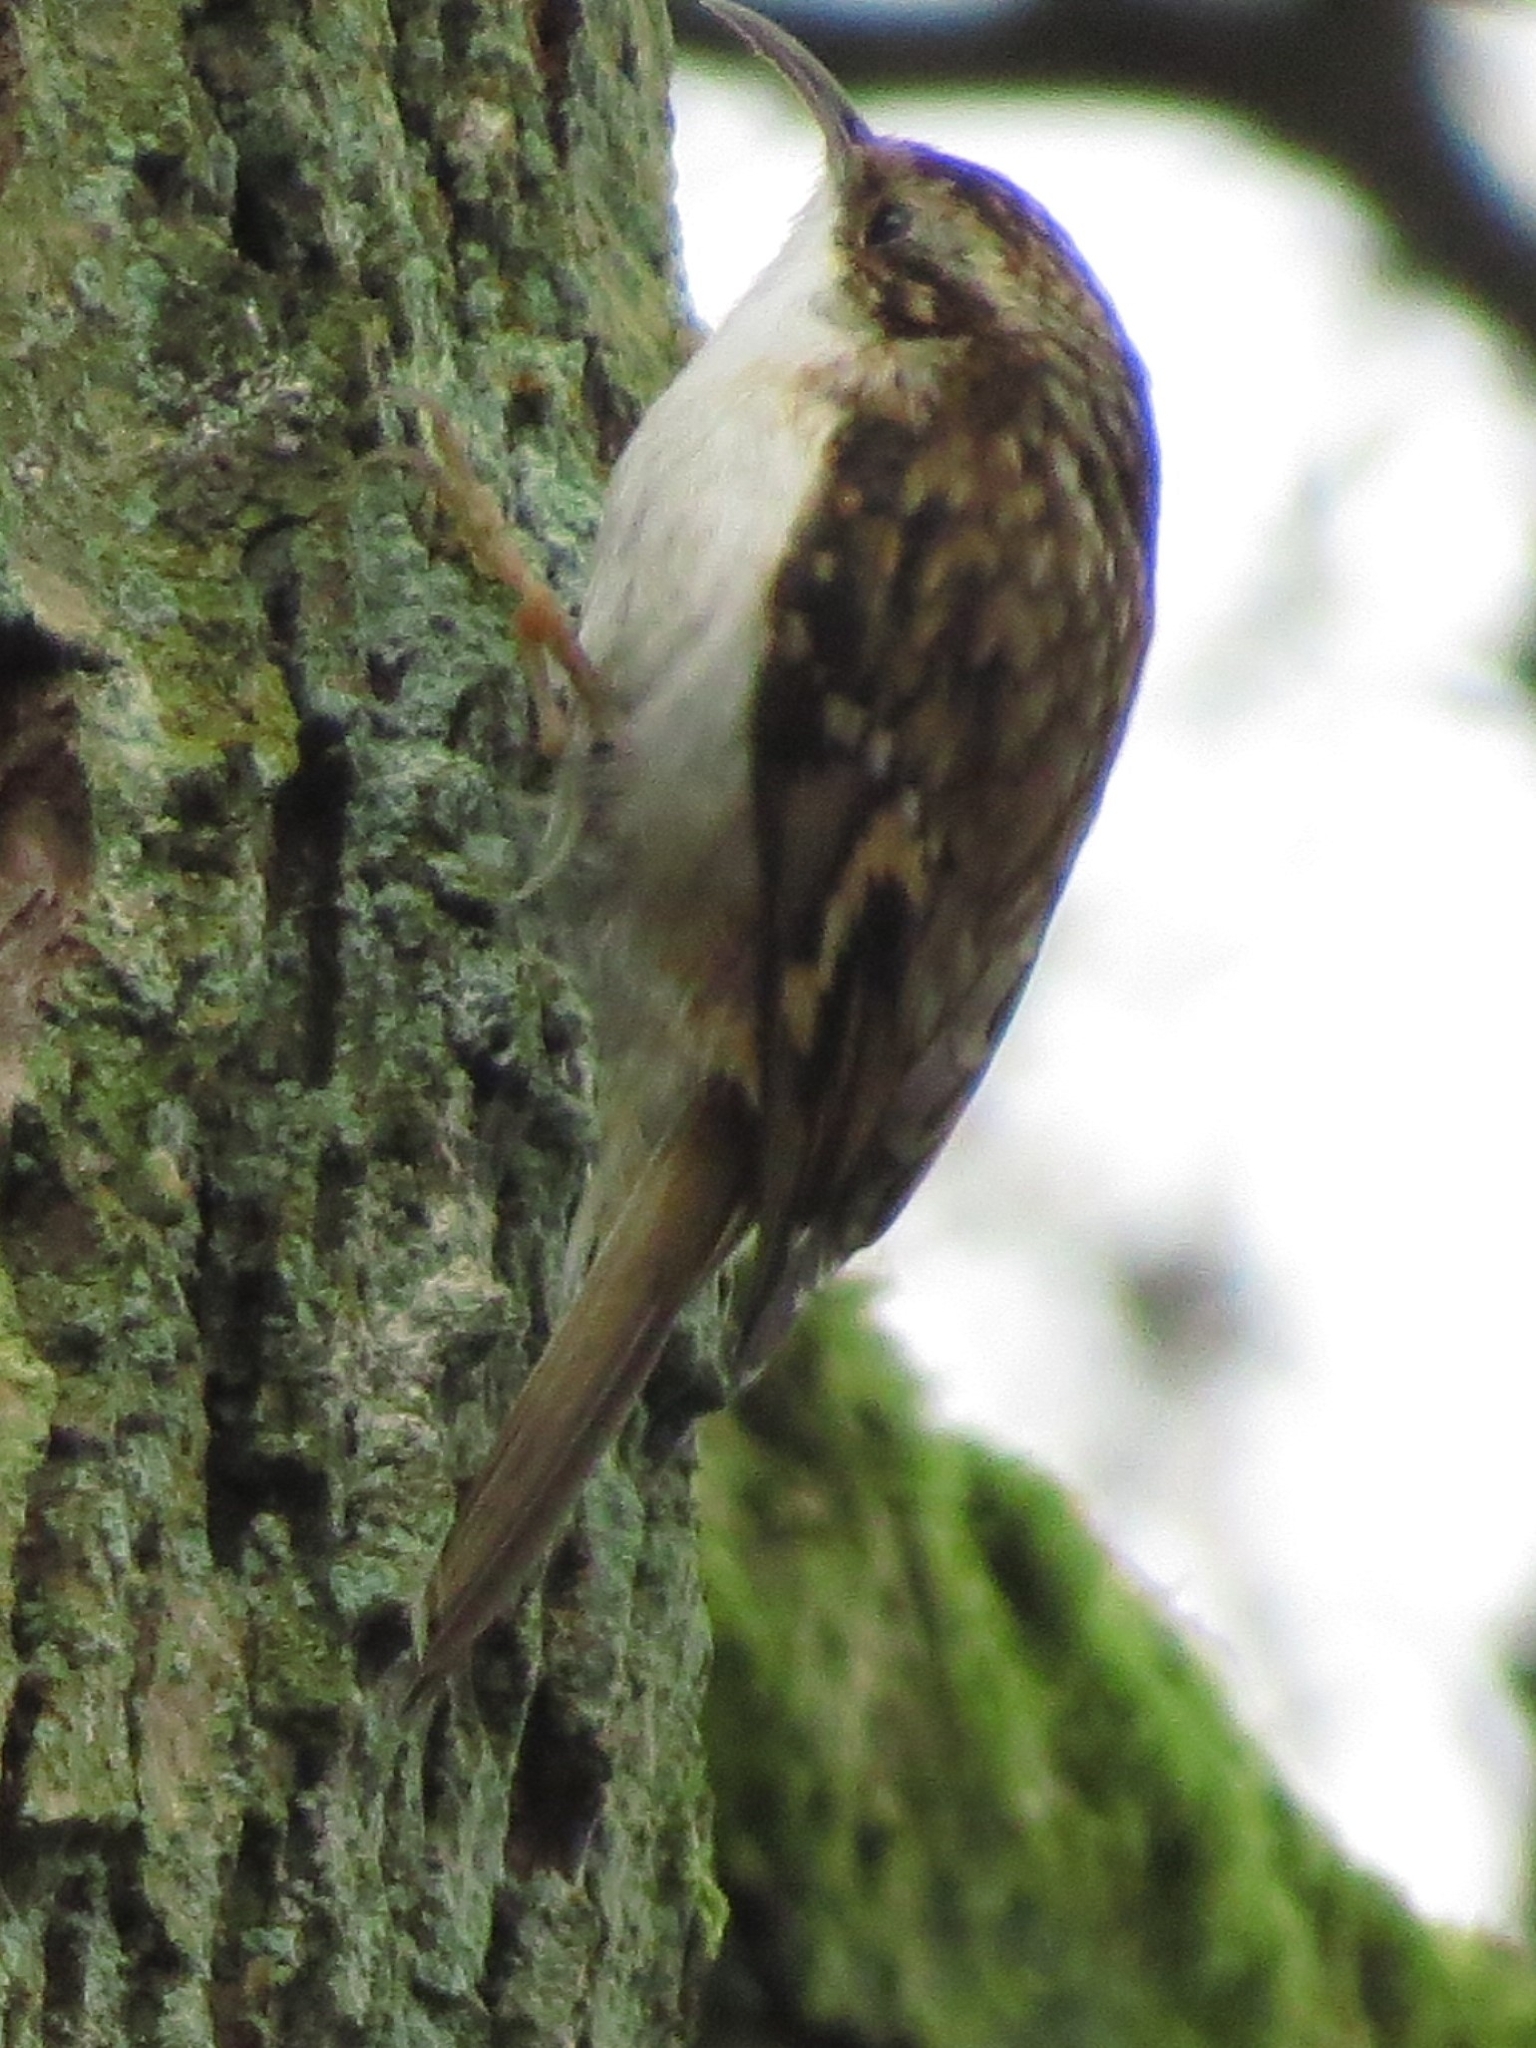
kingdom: Animalia
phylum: Chordata
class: Aves
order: Passeriformes
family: Certhiidae
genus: Certhia
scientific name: Certhia familiaris
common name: Eurasian treecreeper
